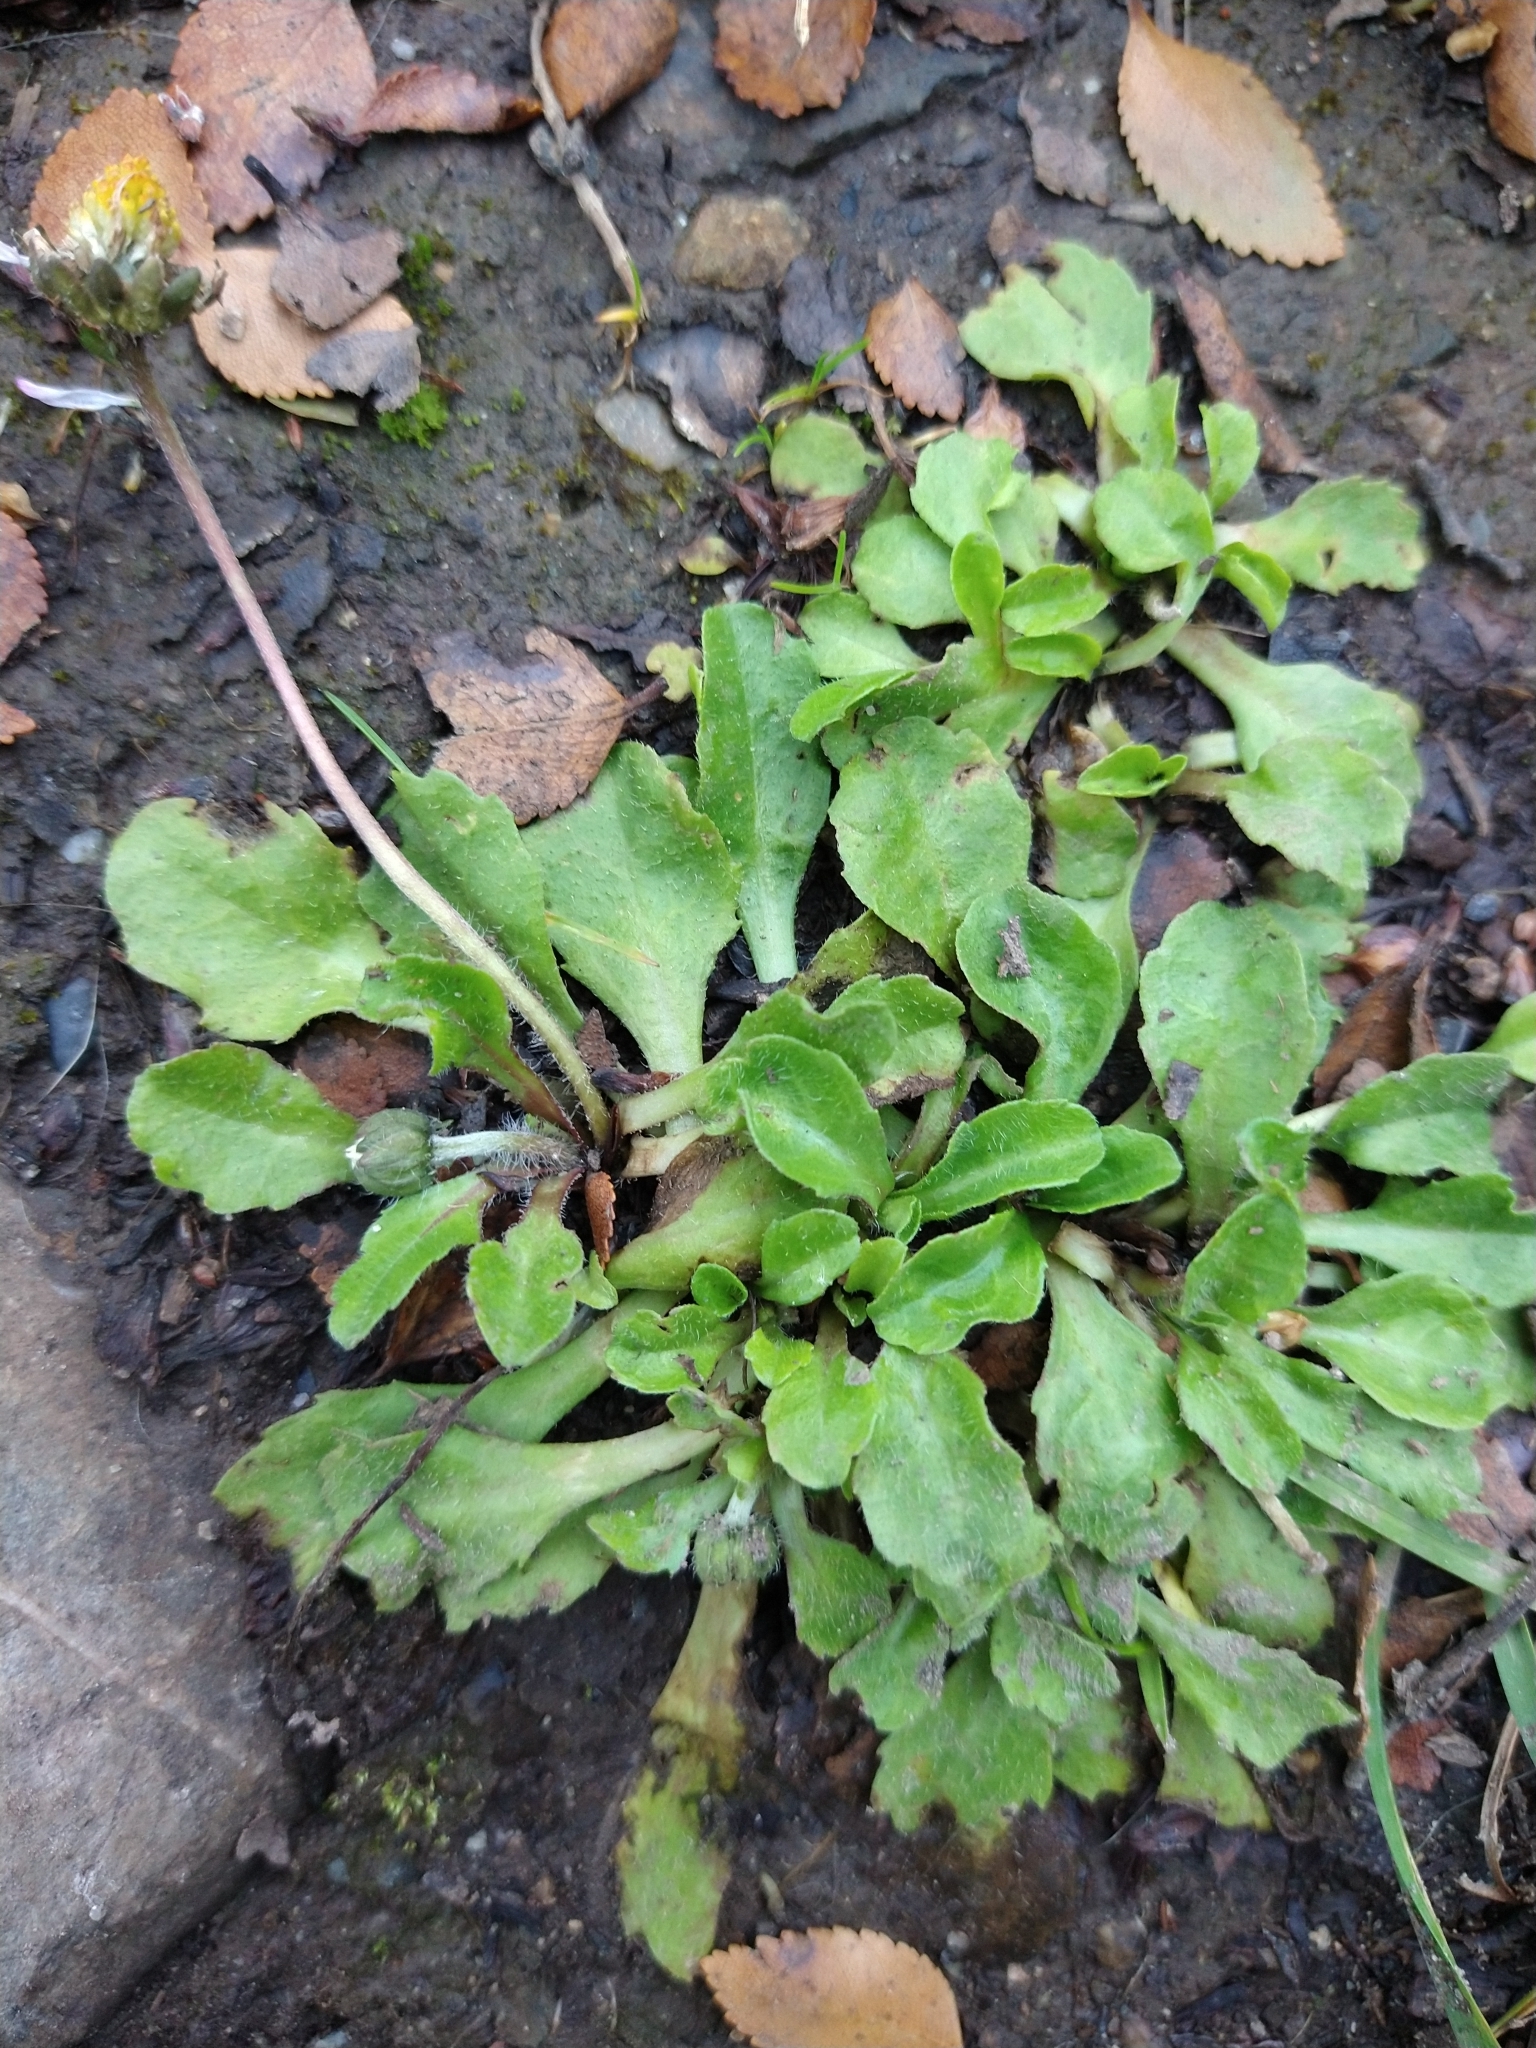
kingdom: Plantae
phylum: Tracheophyta
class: Magnoliopsida
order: Asterales
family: Asteraceae
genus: Bellis
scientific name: Bellis perennis
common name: Lawndaisy
